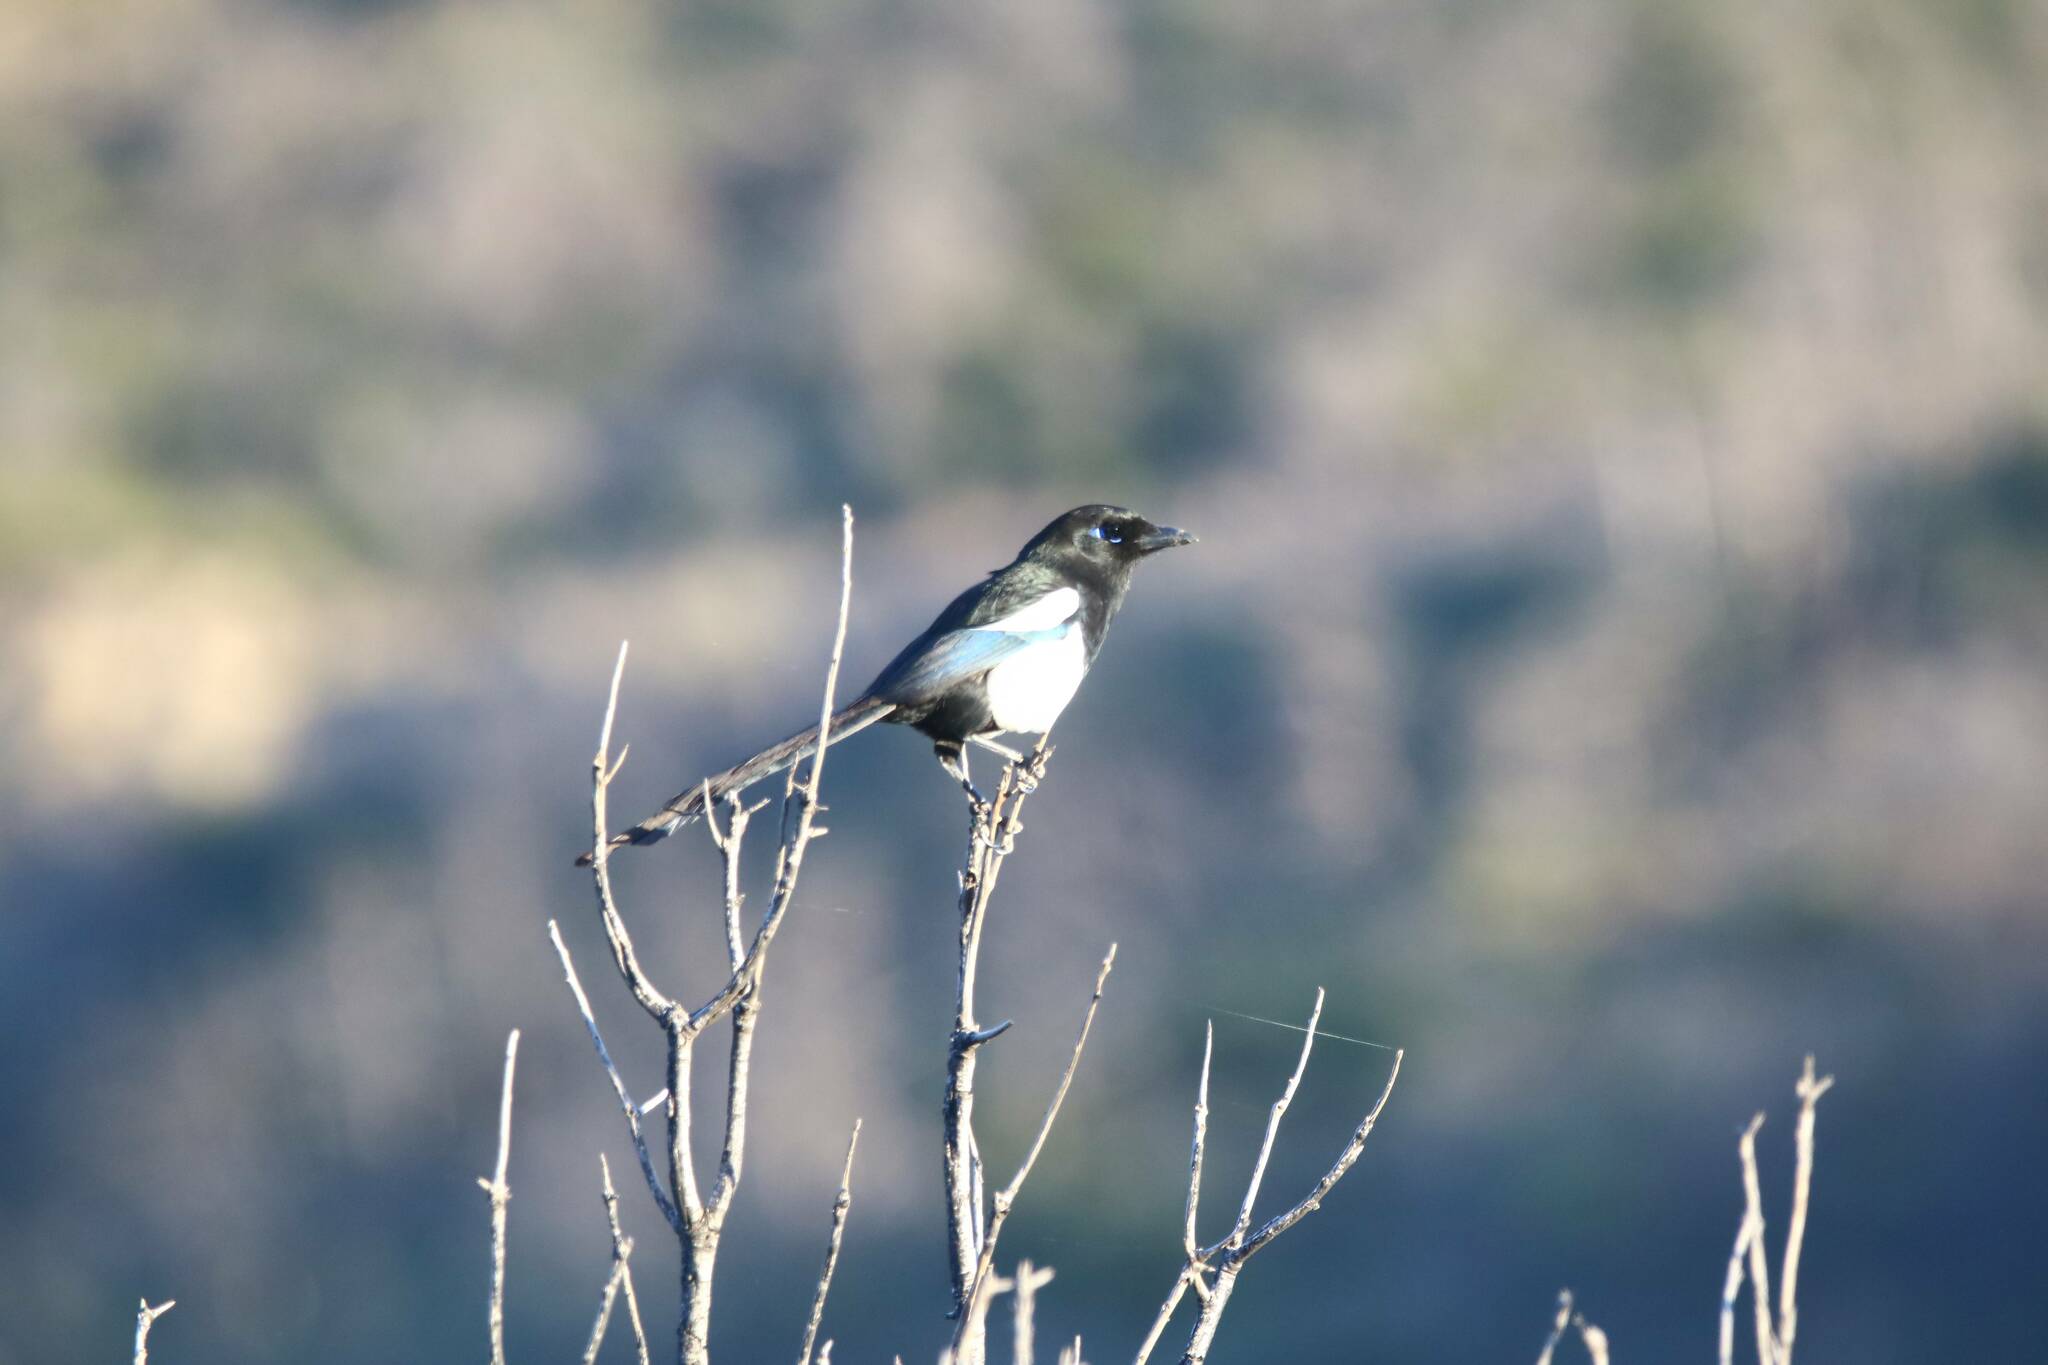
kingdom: Animalia
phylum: Chordata
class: Aves
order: Passeriformes
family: Corvidae
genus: Pica
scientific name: Pica mauritanica
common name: Maghreb magpie
